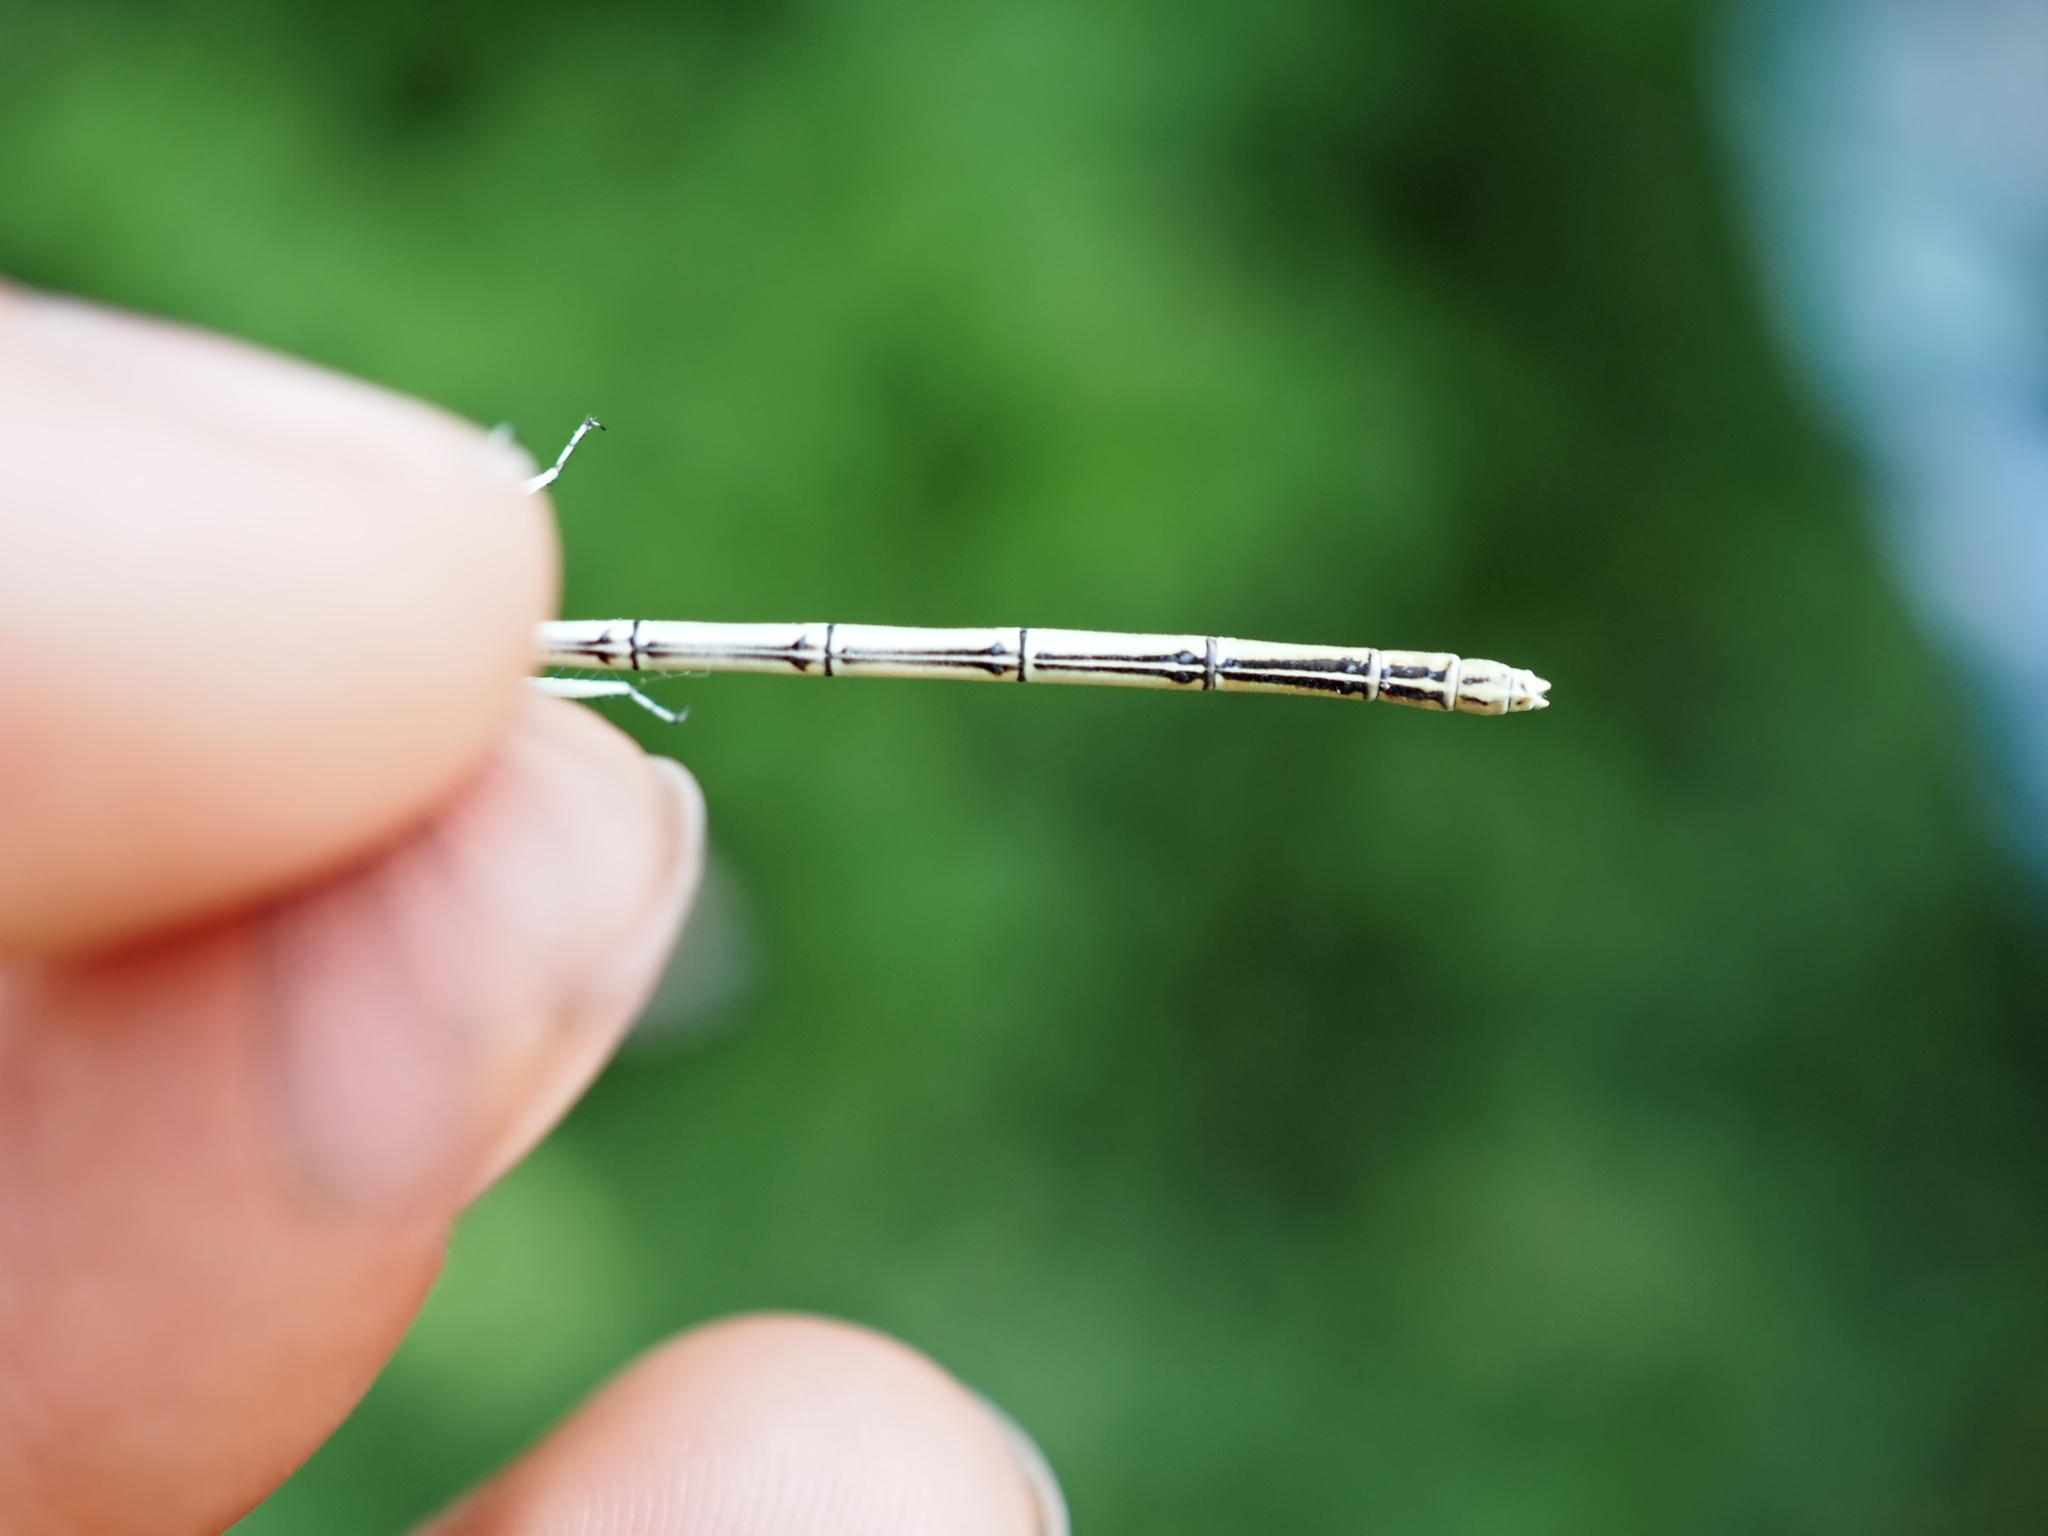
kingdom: Animalia
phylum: Arthropoda
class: Insecta
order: Odonata
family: Platycnemididae
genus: Platycnemis
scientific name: Platycnemis pennipes
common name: White-legged damselfly
